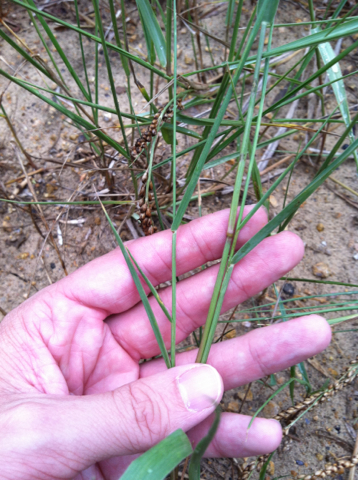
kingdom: Plantae
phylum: Tracheophyta
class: Liliopsida
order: Poales
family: Poaceae
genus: Hopia
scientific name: Hopia obtusa
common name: Vine-mesquite
